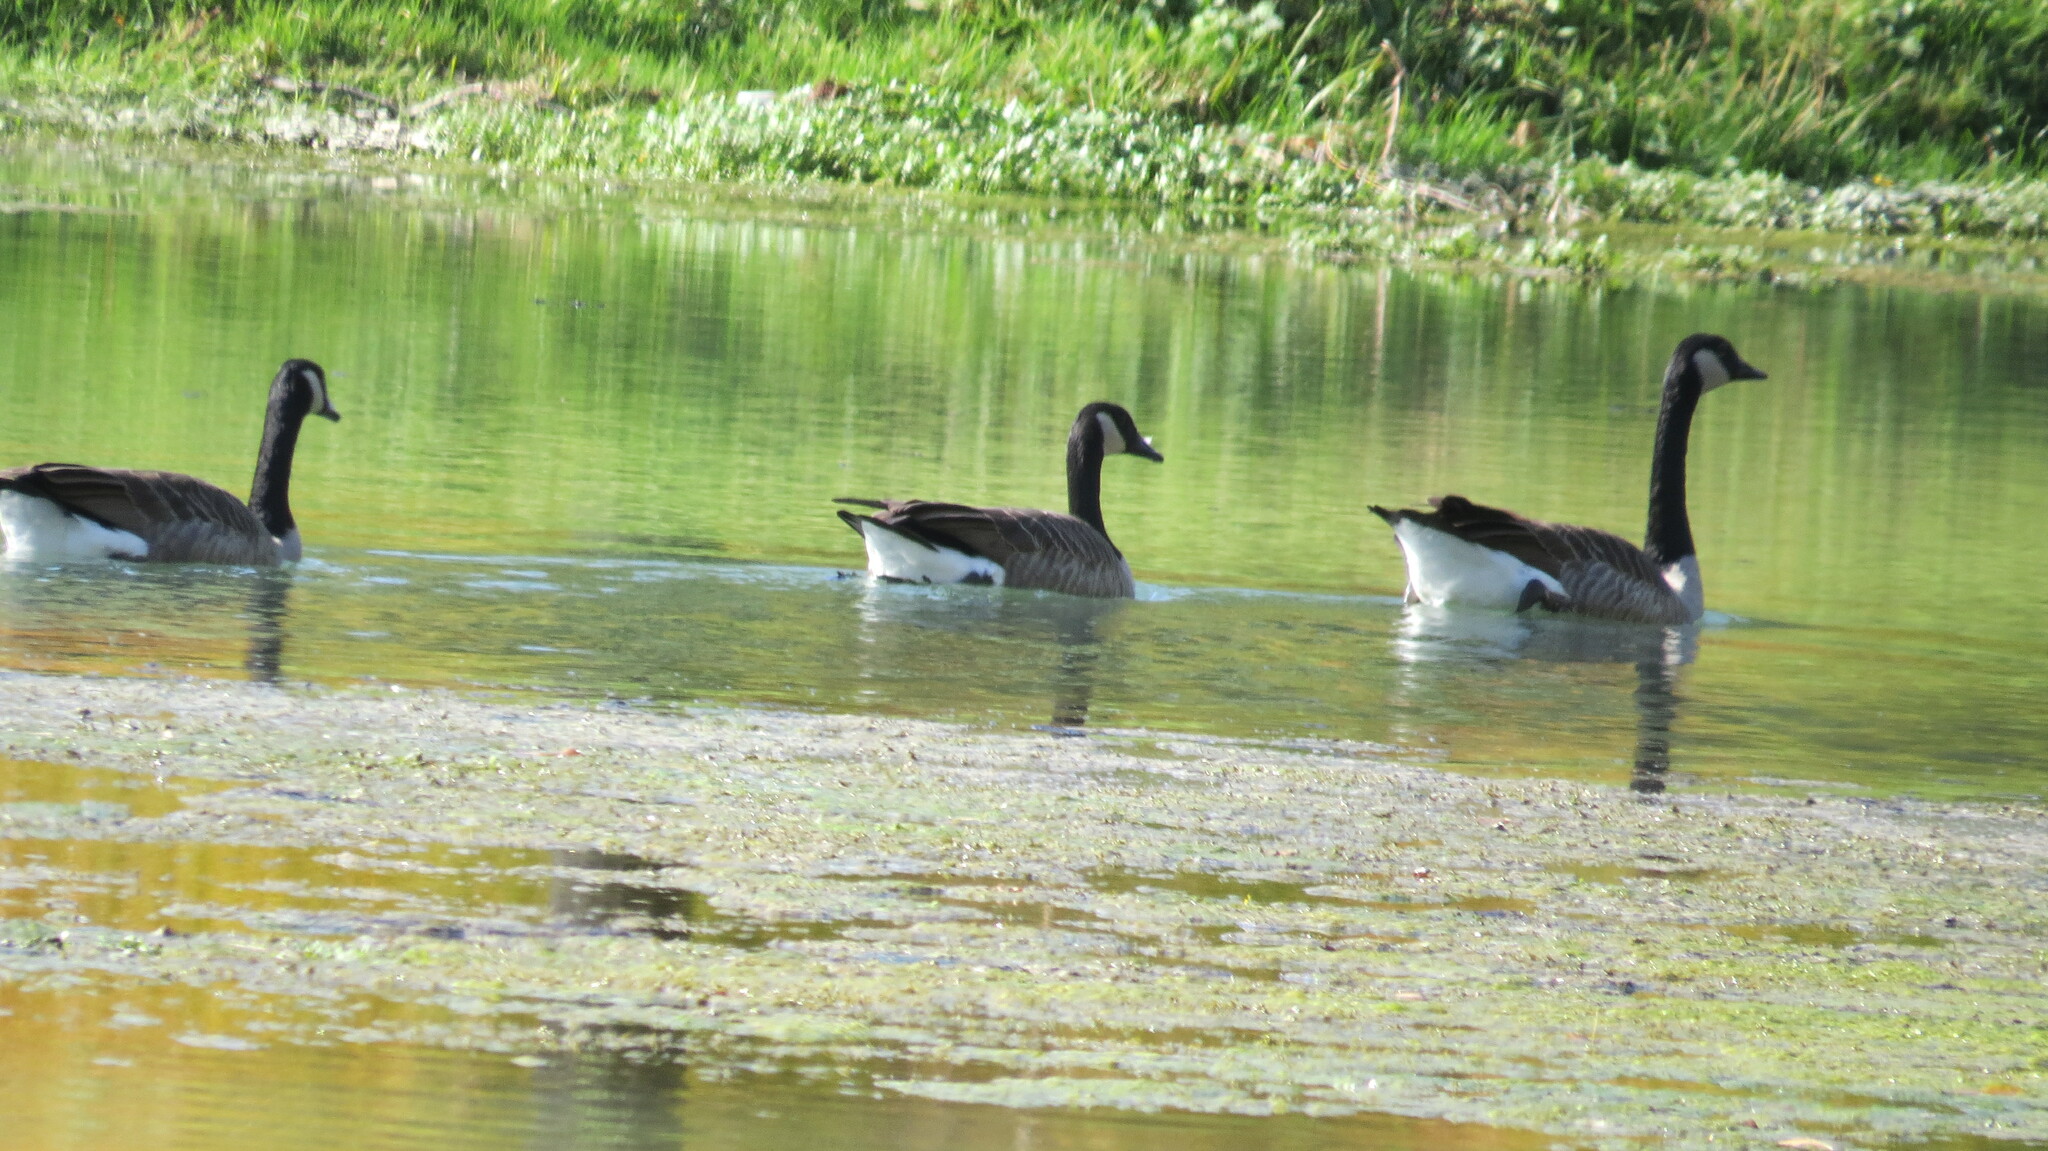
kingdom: Animalia
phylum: Chordata
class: Aves
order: Anseriformes
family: Anatidae
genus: Branta
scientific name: Branta canadensis
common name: Canada goose
